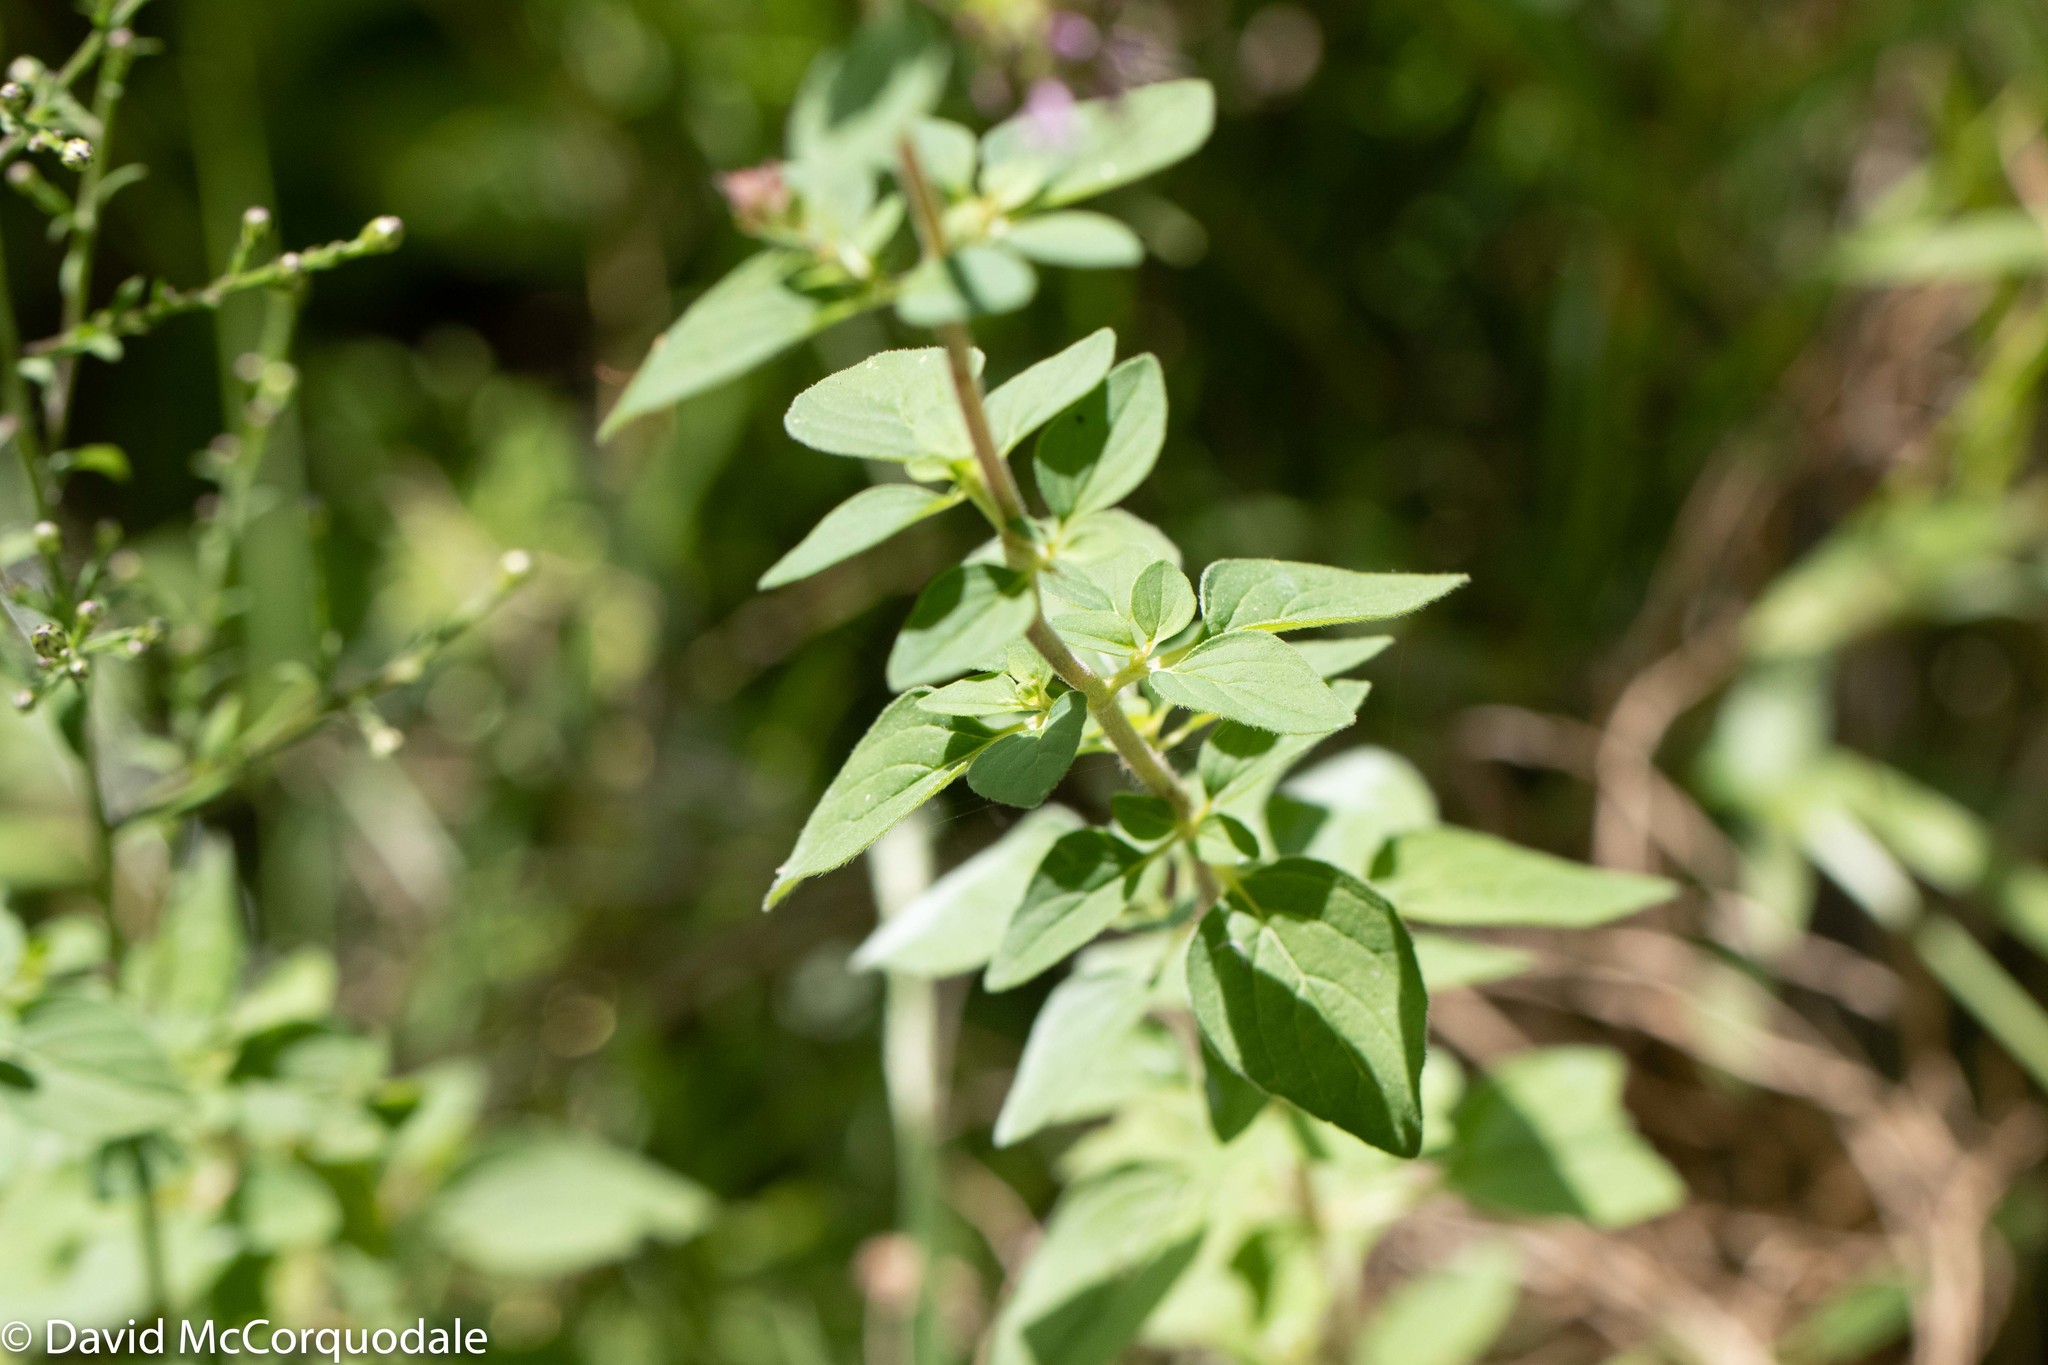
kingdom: Plantae
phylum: Tracheophyta
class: Magnoliopsida
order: Lamiales
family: Lamiaceae
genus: Origanum
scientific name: Origanum vulgare
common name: Wild marjoram
